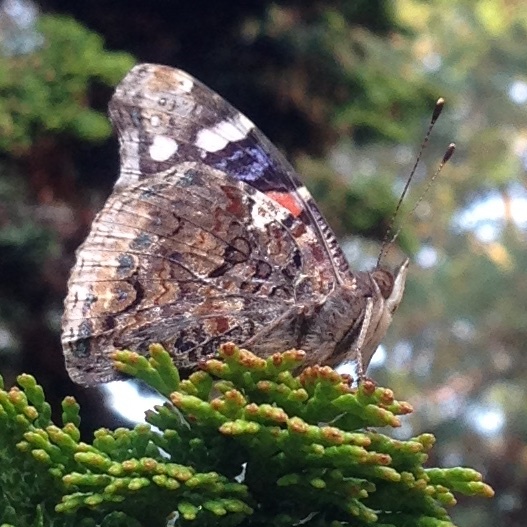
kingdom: Animalia
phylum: Arthropoda
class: Insecta
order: Lepidoptera
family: Nymphalidae
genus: Vanessa
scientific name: Vanessa atalanta
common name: Red admiral
